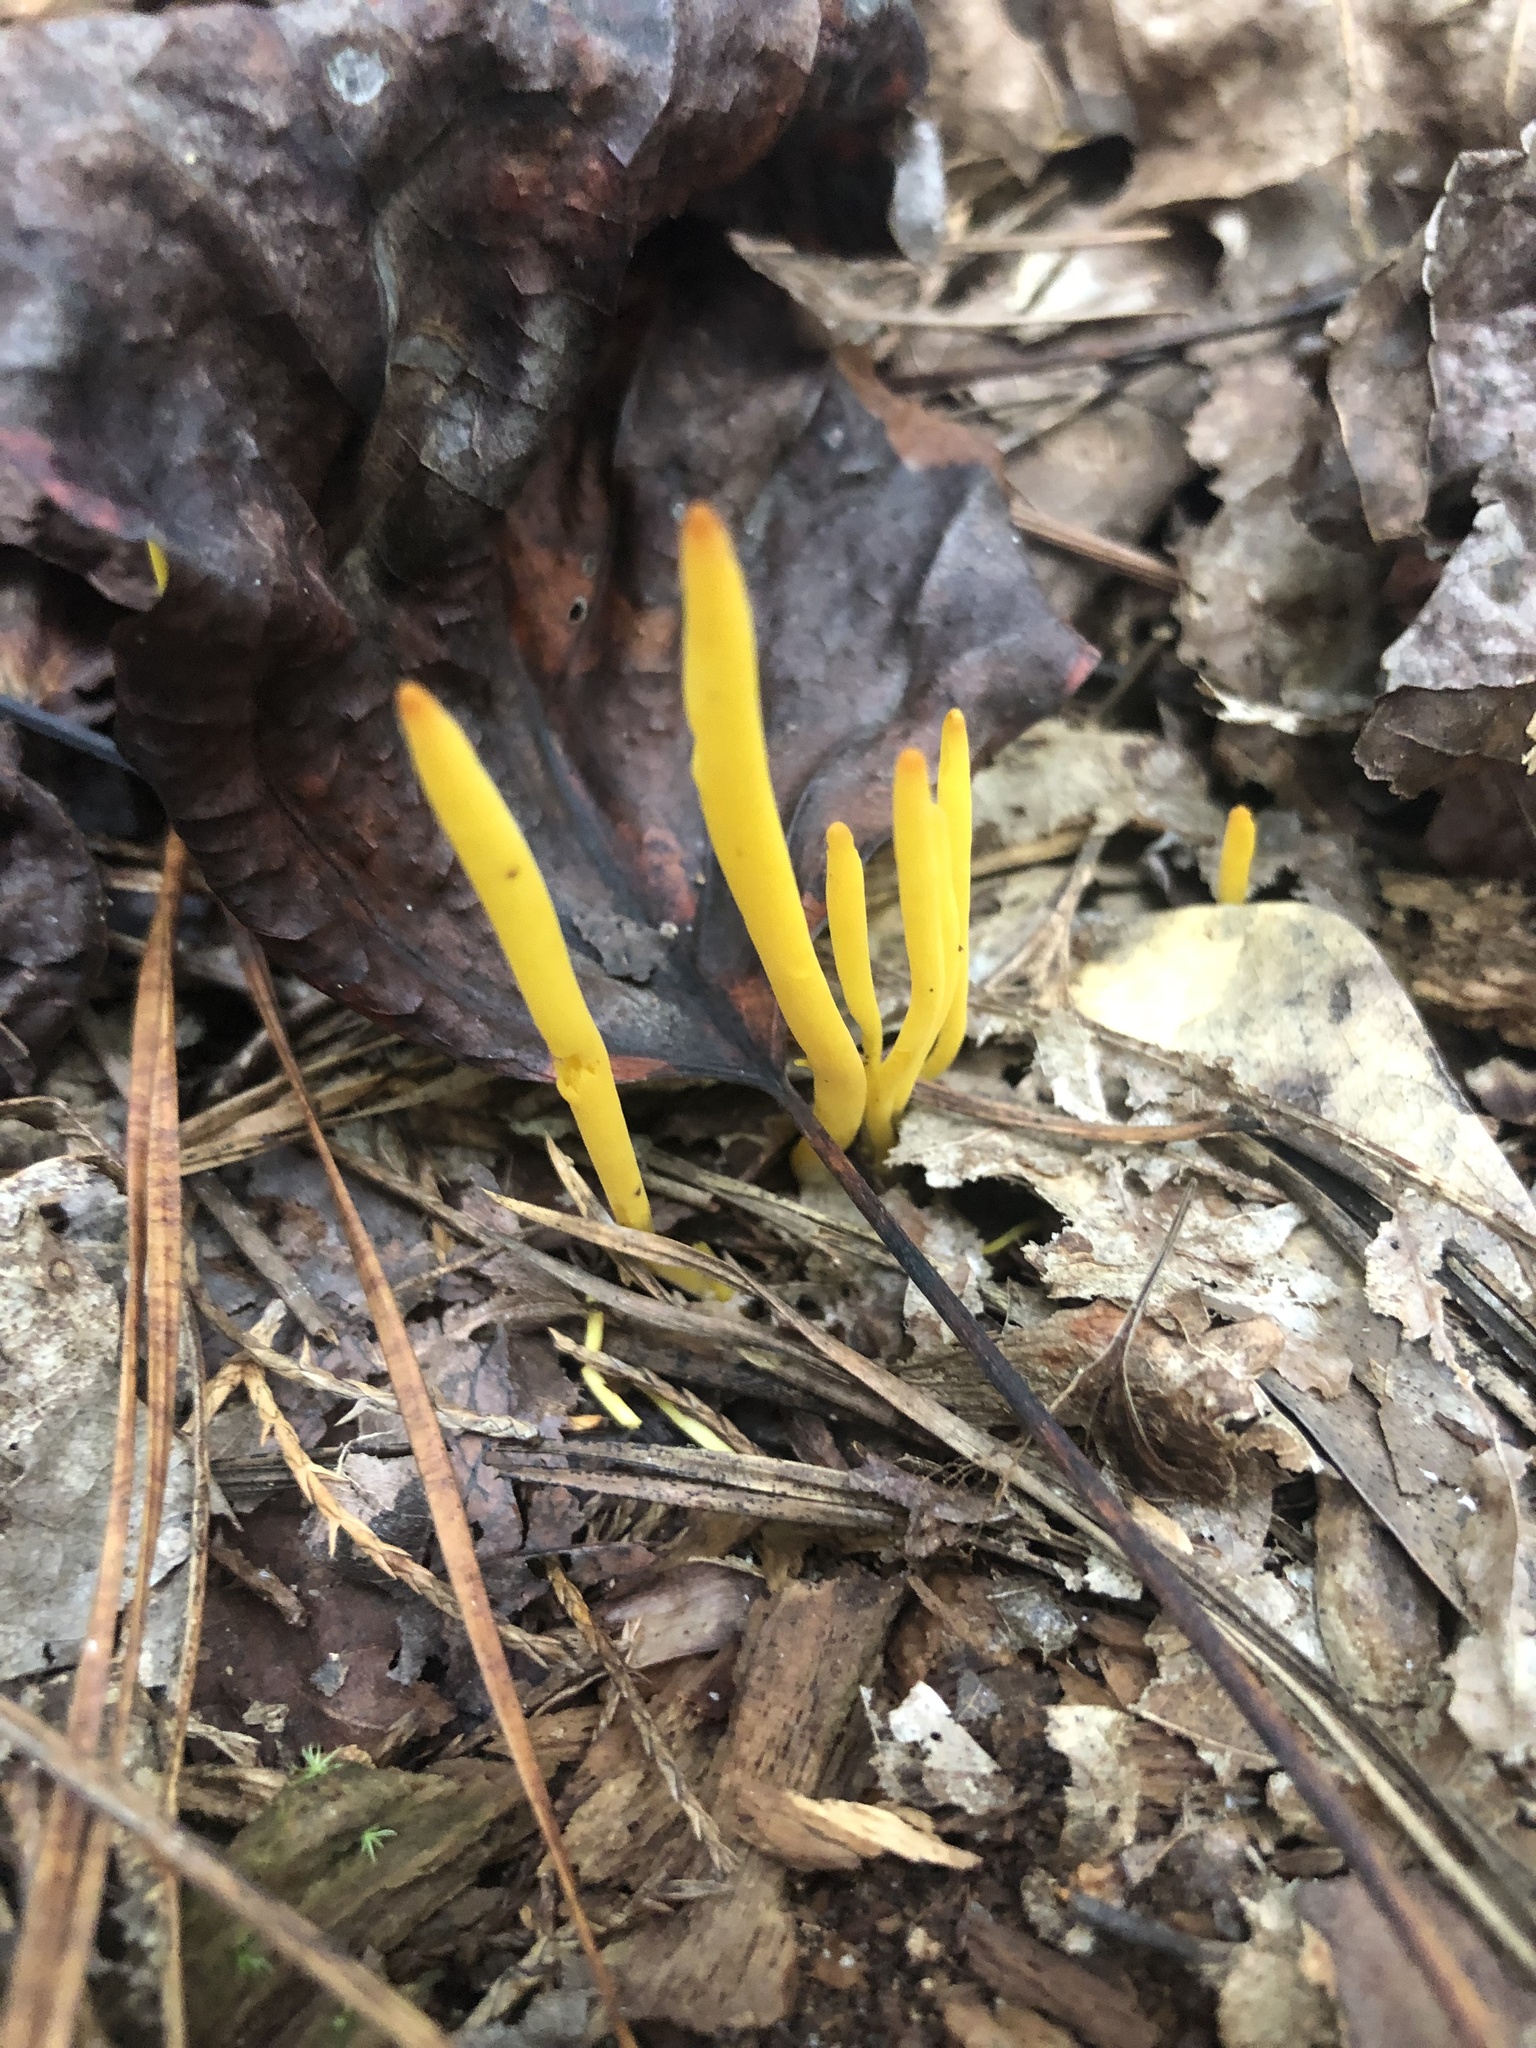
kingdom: Fungi
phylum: Basidiomycota
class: Agaricomycetes
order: Agaricales
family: Clavariaceae
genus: Clavulinopsis
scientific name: Clavulinopsis fusiformis
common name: Golden spindles
